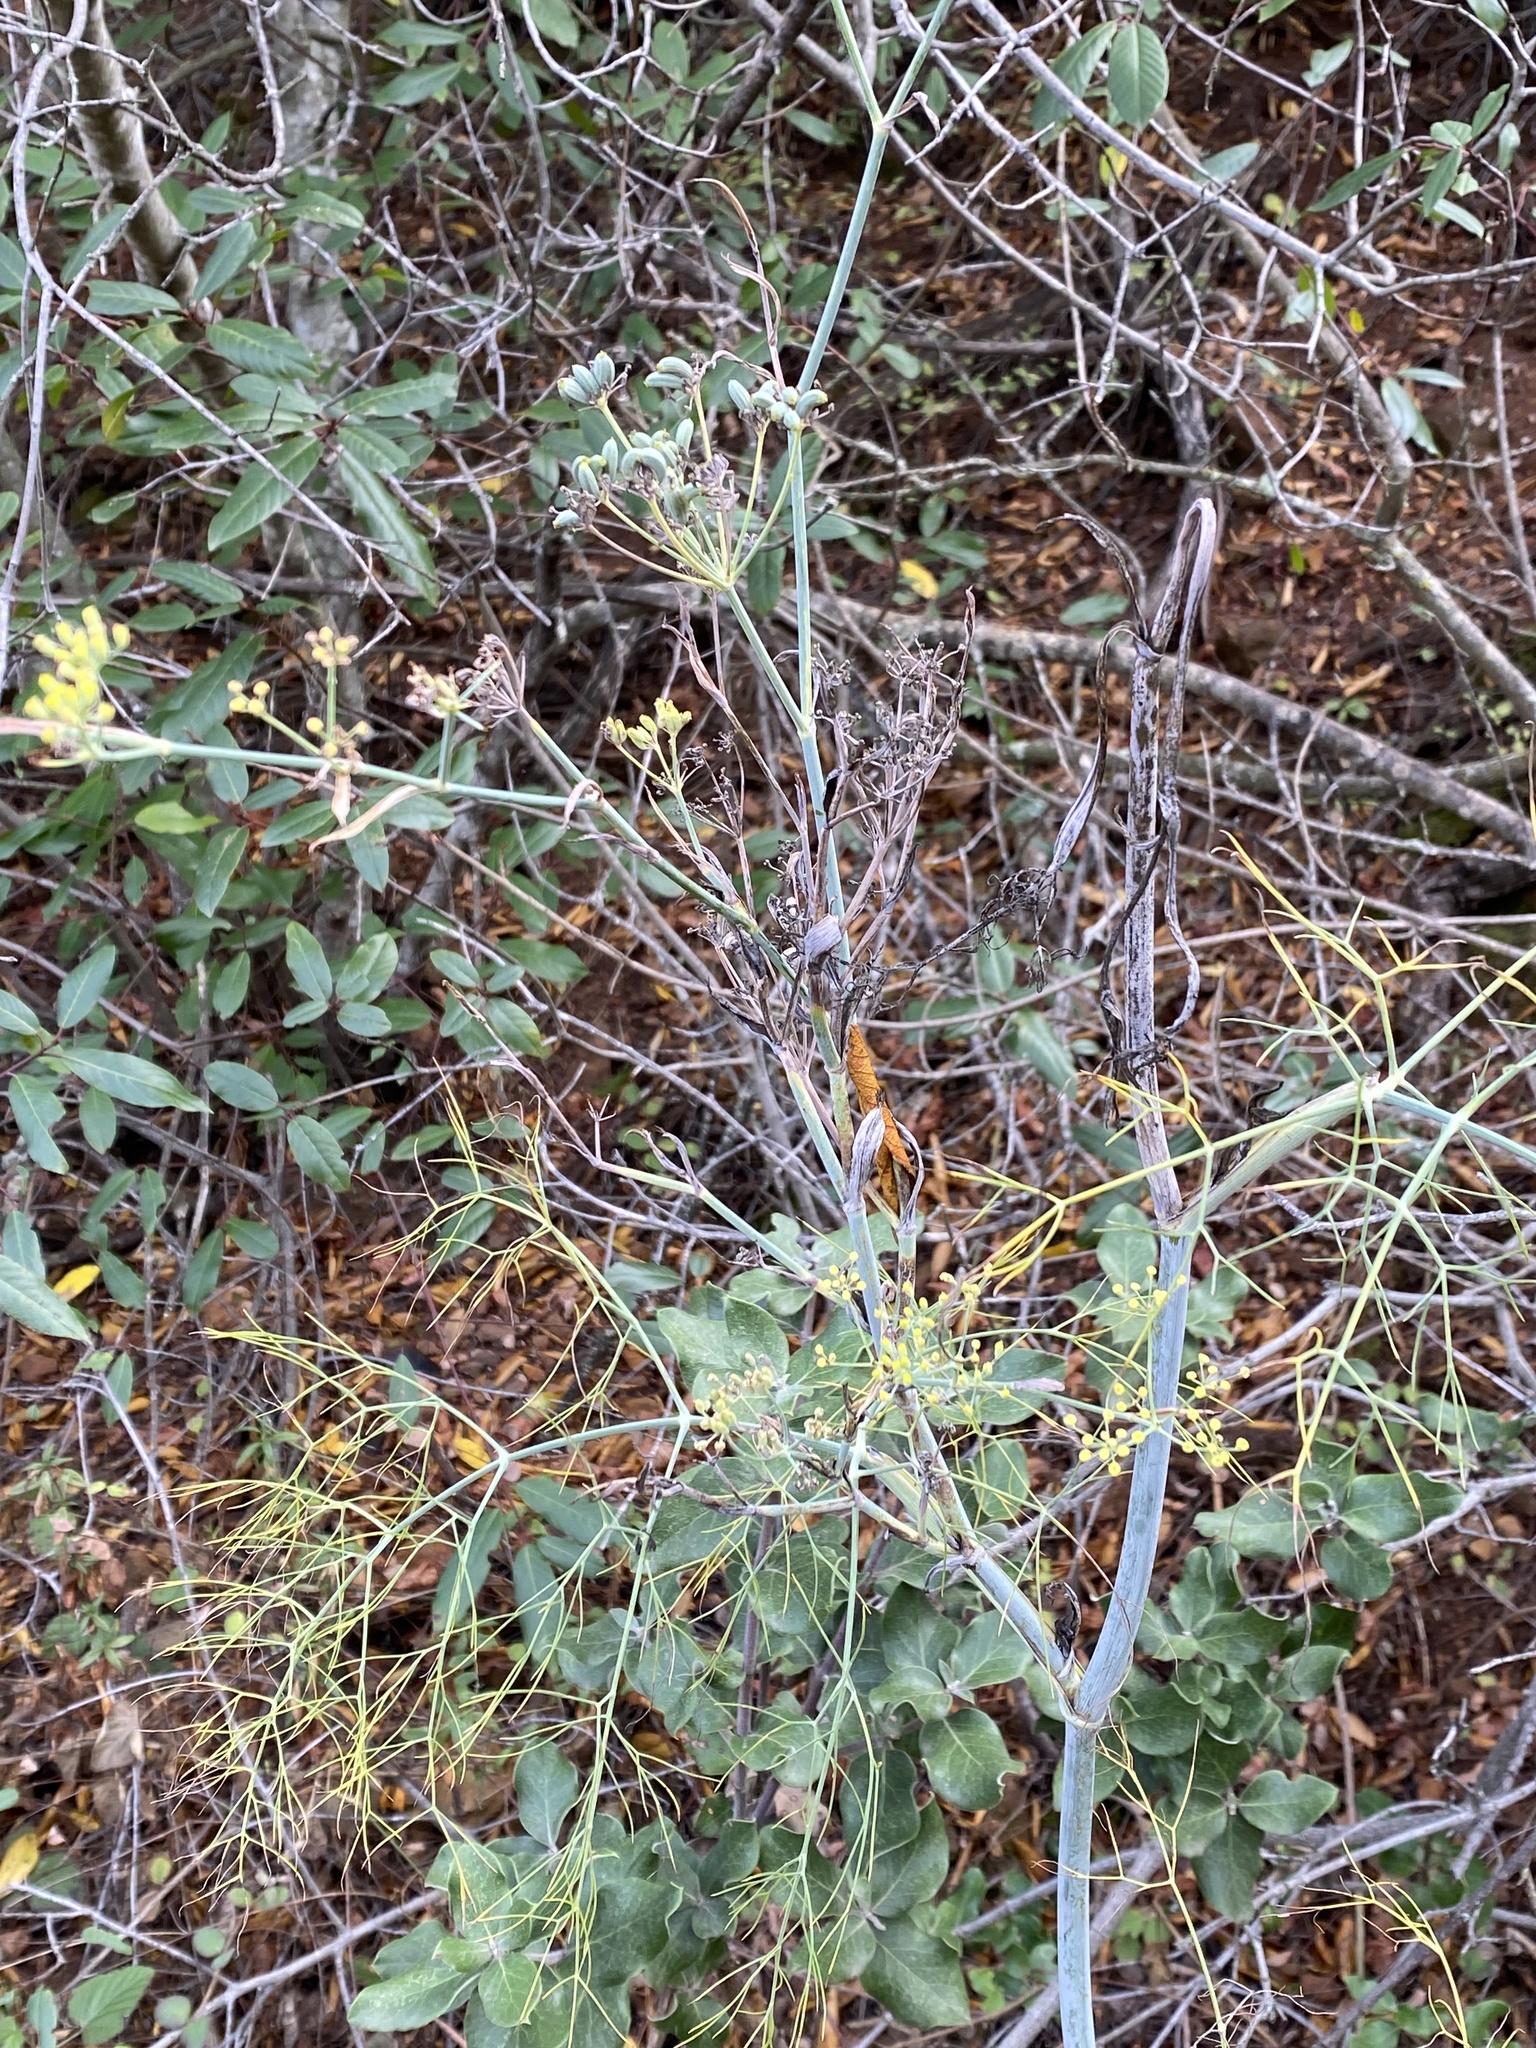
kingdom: Plantae
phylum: Tracheophyta
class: Magnoliopsida
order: Apiales
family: Apiaceae
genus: Foeniculum
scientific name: Foeniculum vulgare
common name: Fennel
